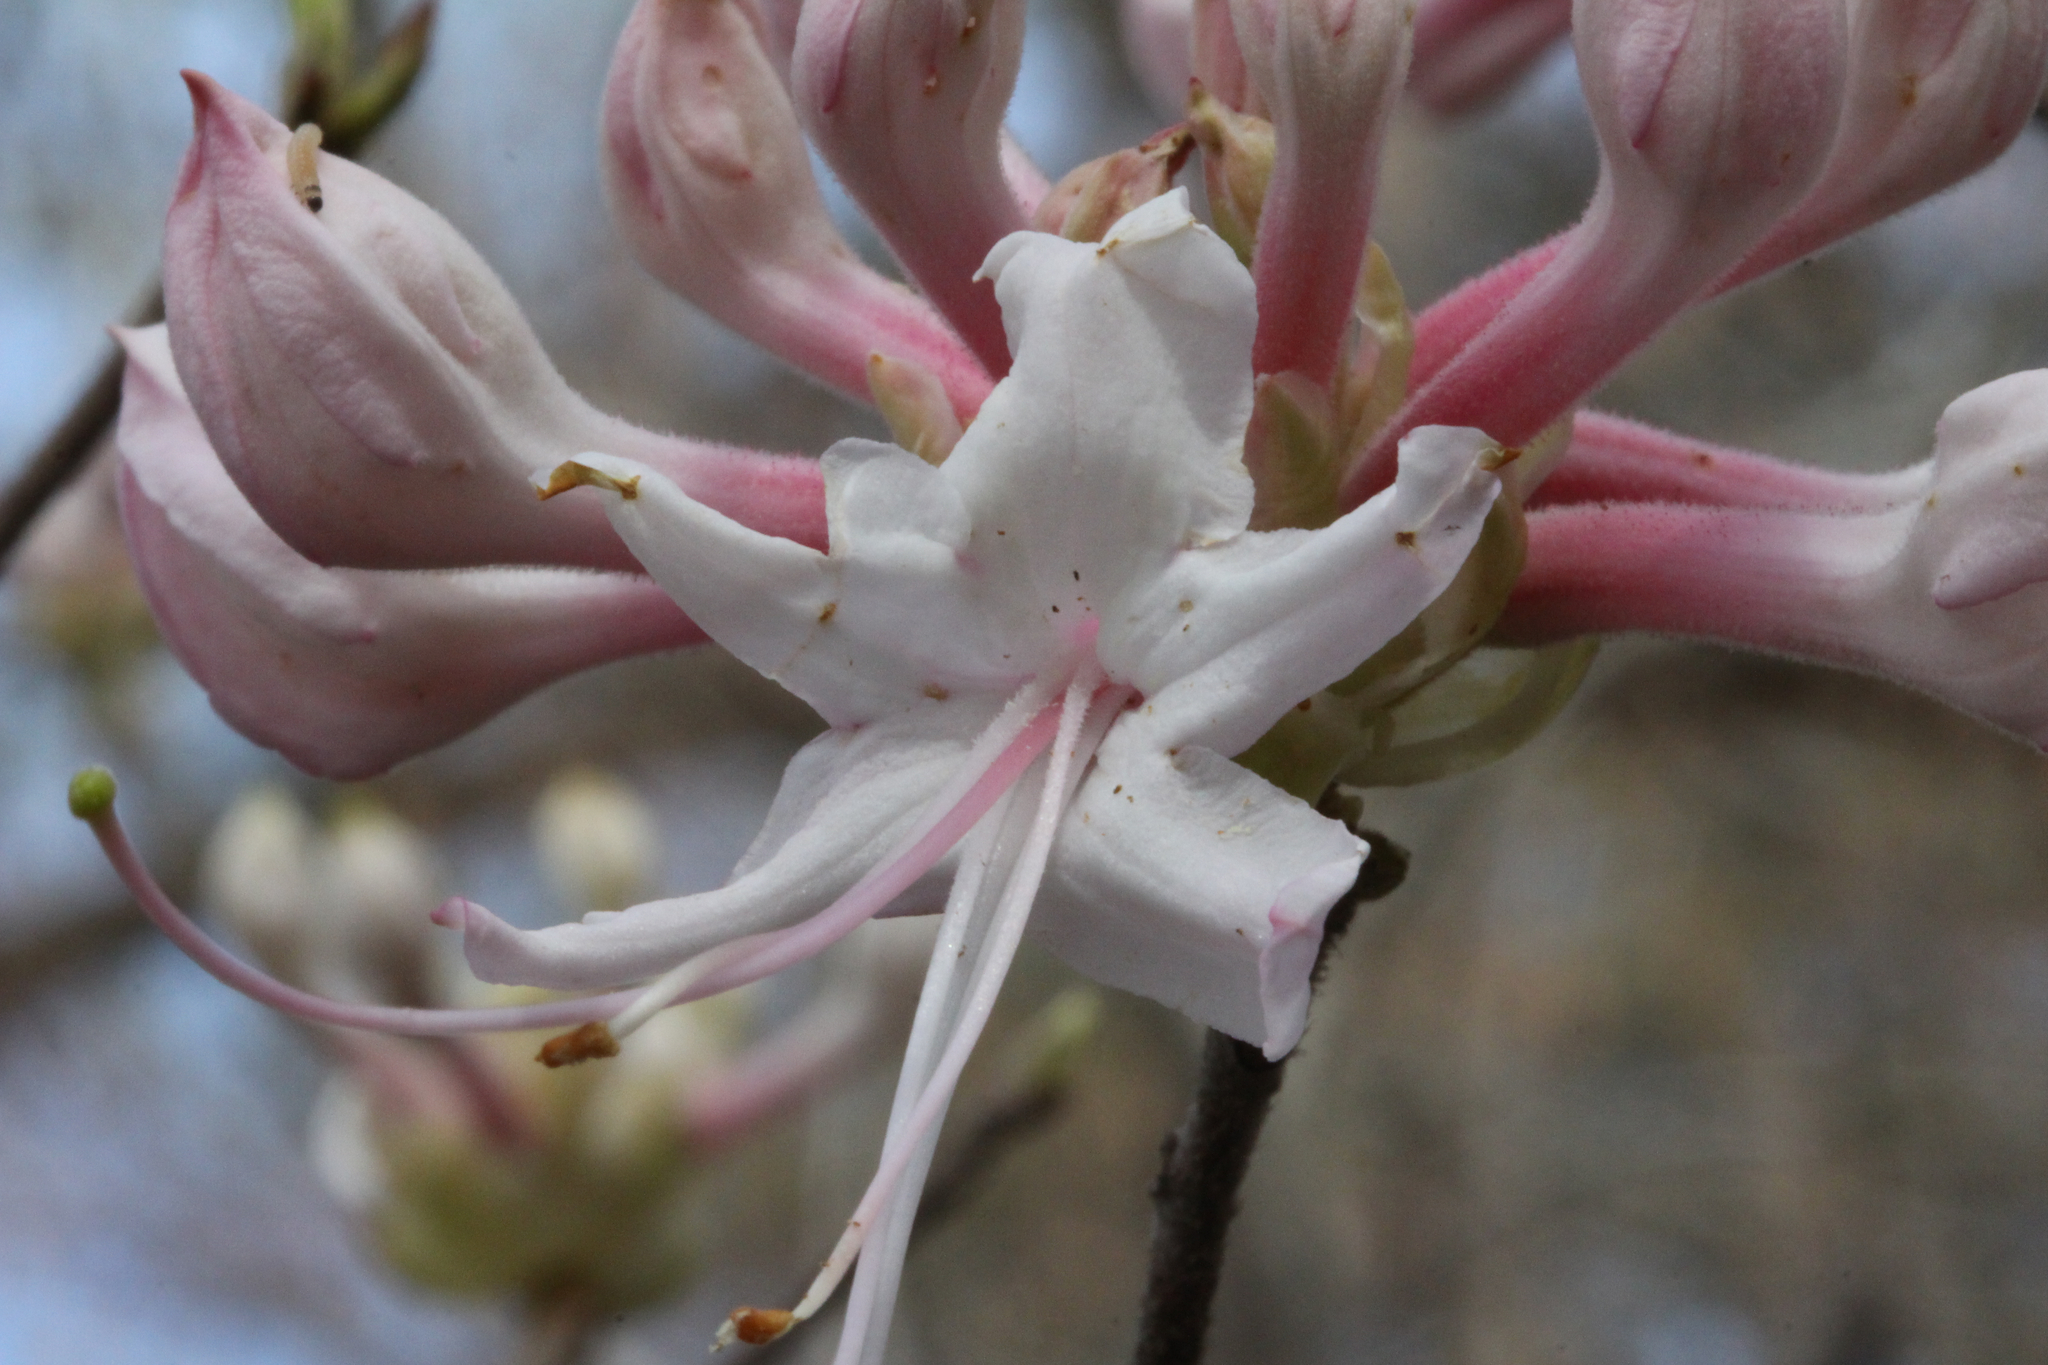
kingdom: Plantae
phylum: Tracheophyta
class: Magnoliopsida
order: Ericales
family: Ericaceae
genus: Rhododendron
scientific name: Rhododendron canescens
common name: Mountain azalea
